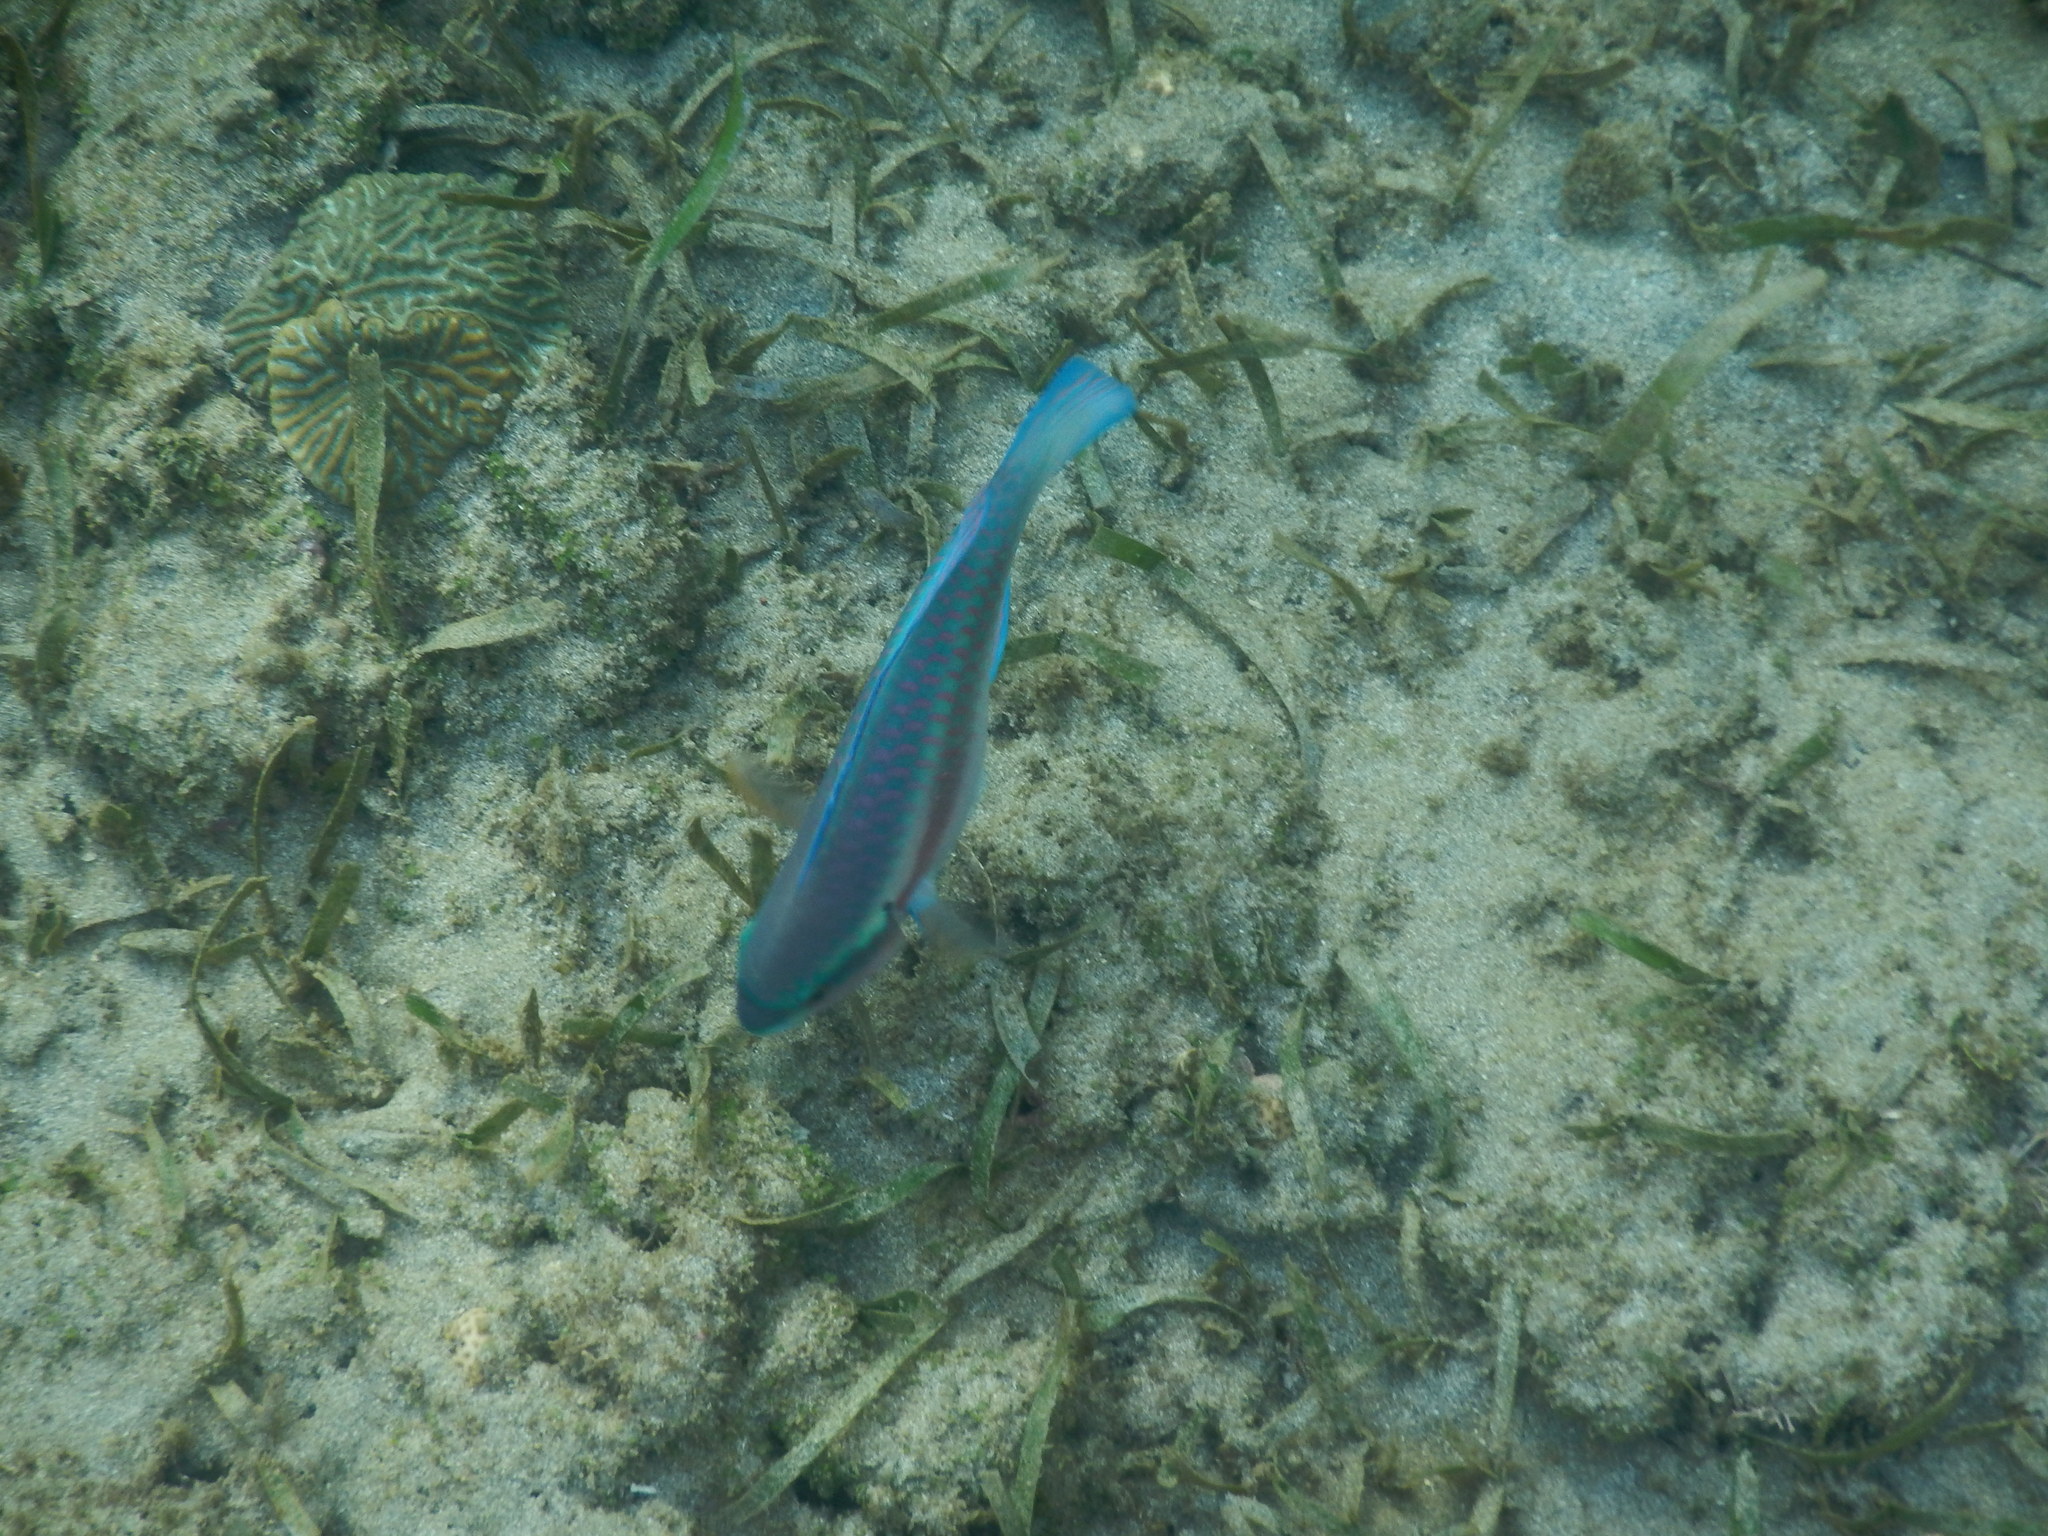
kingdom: Animalia
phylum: Chordata
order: Perciformes
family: Scaridae
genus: Scarus
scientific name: Scarus iseri
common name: Striped parrotfish
